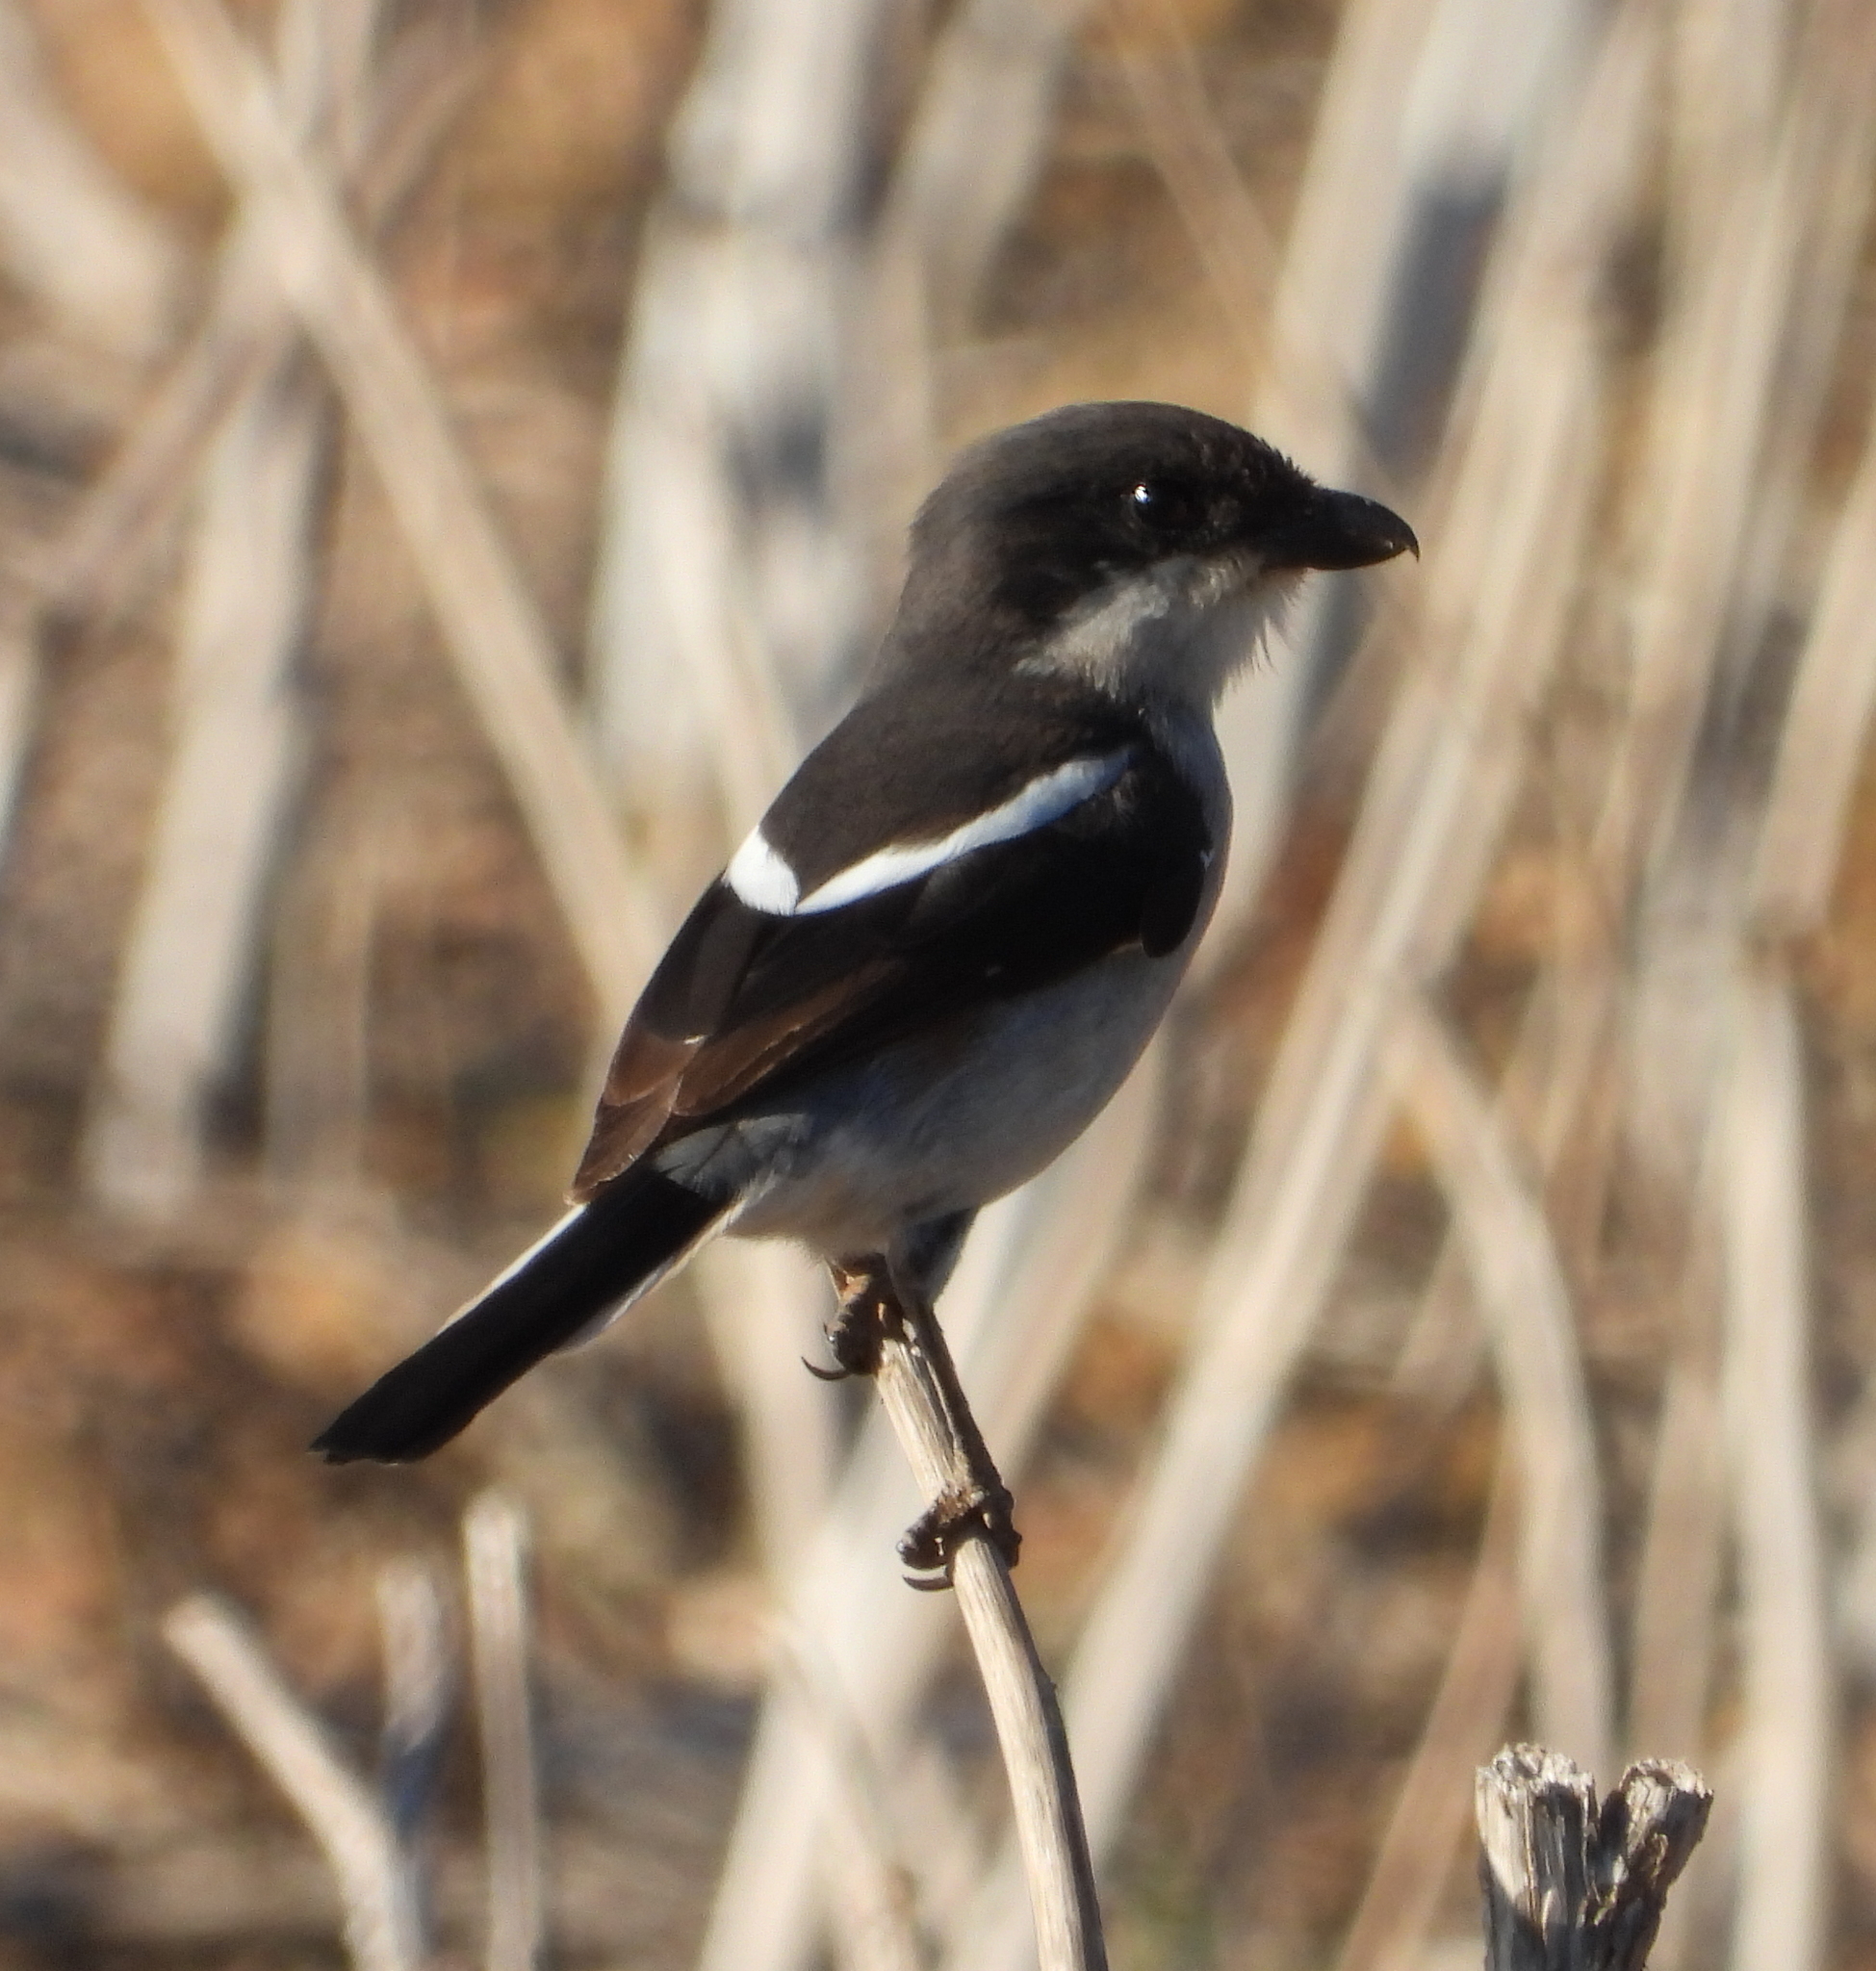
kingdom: Animalia
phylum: Chordata
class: Aves
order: Passeriformes
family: Laniidae
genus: Lanius
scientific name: Lanius collaris
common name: Southern fiscal
